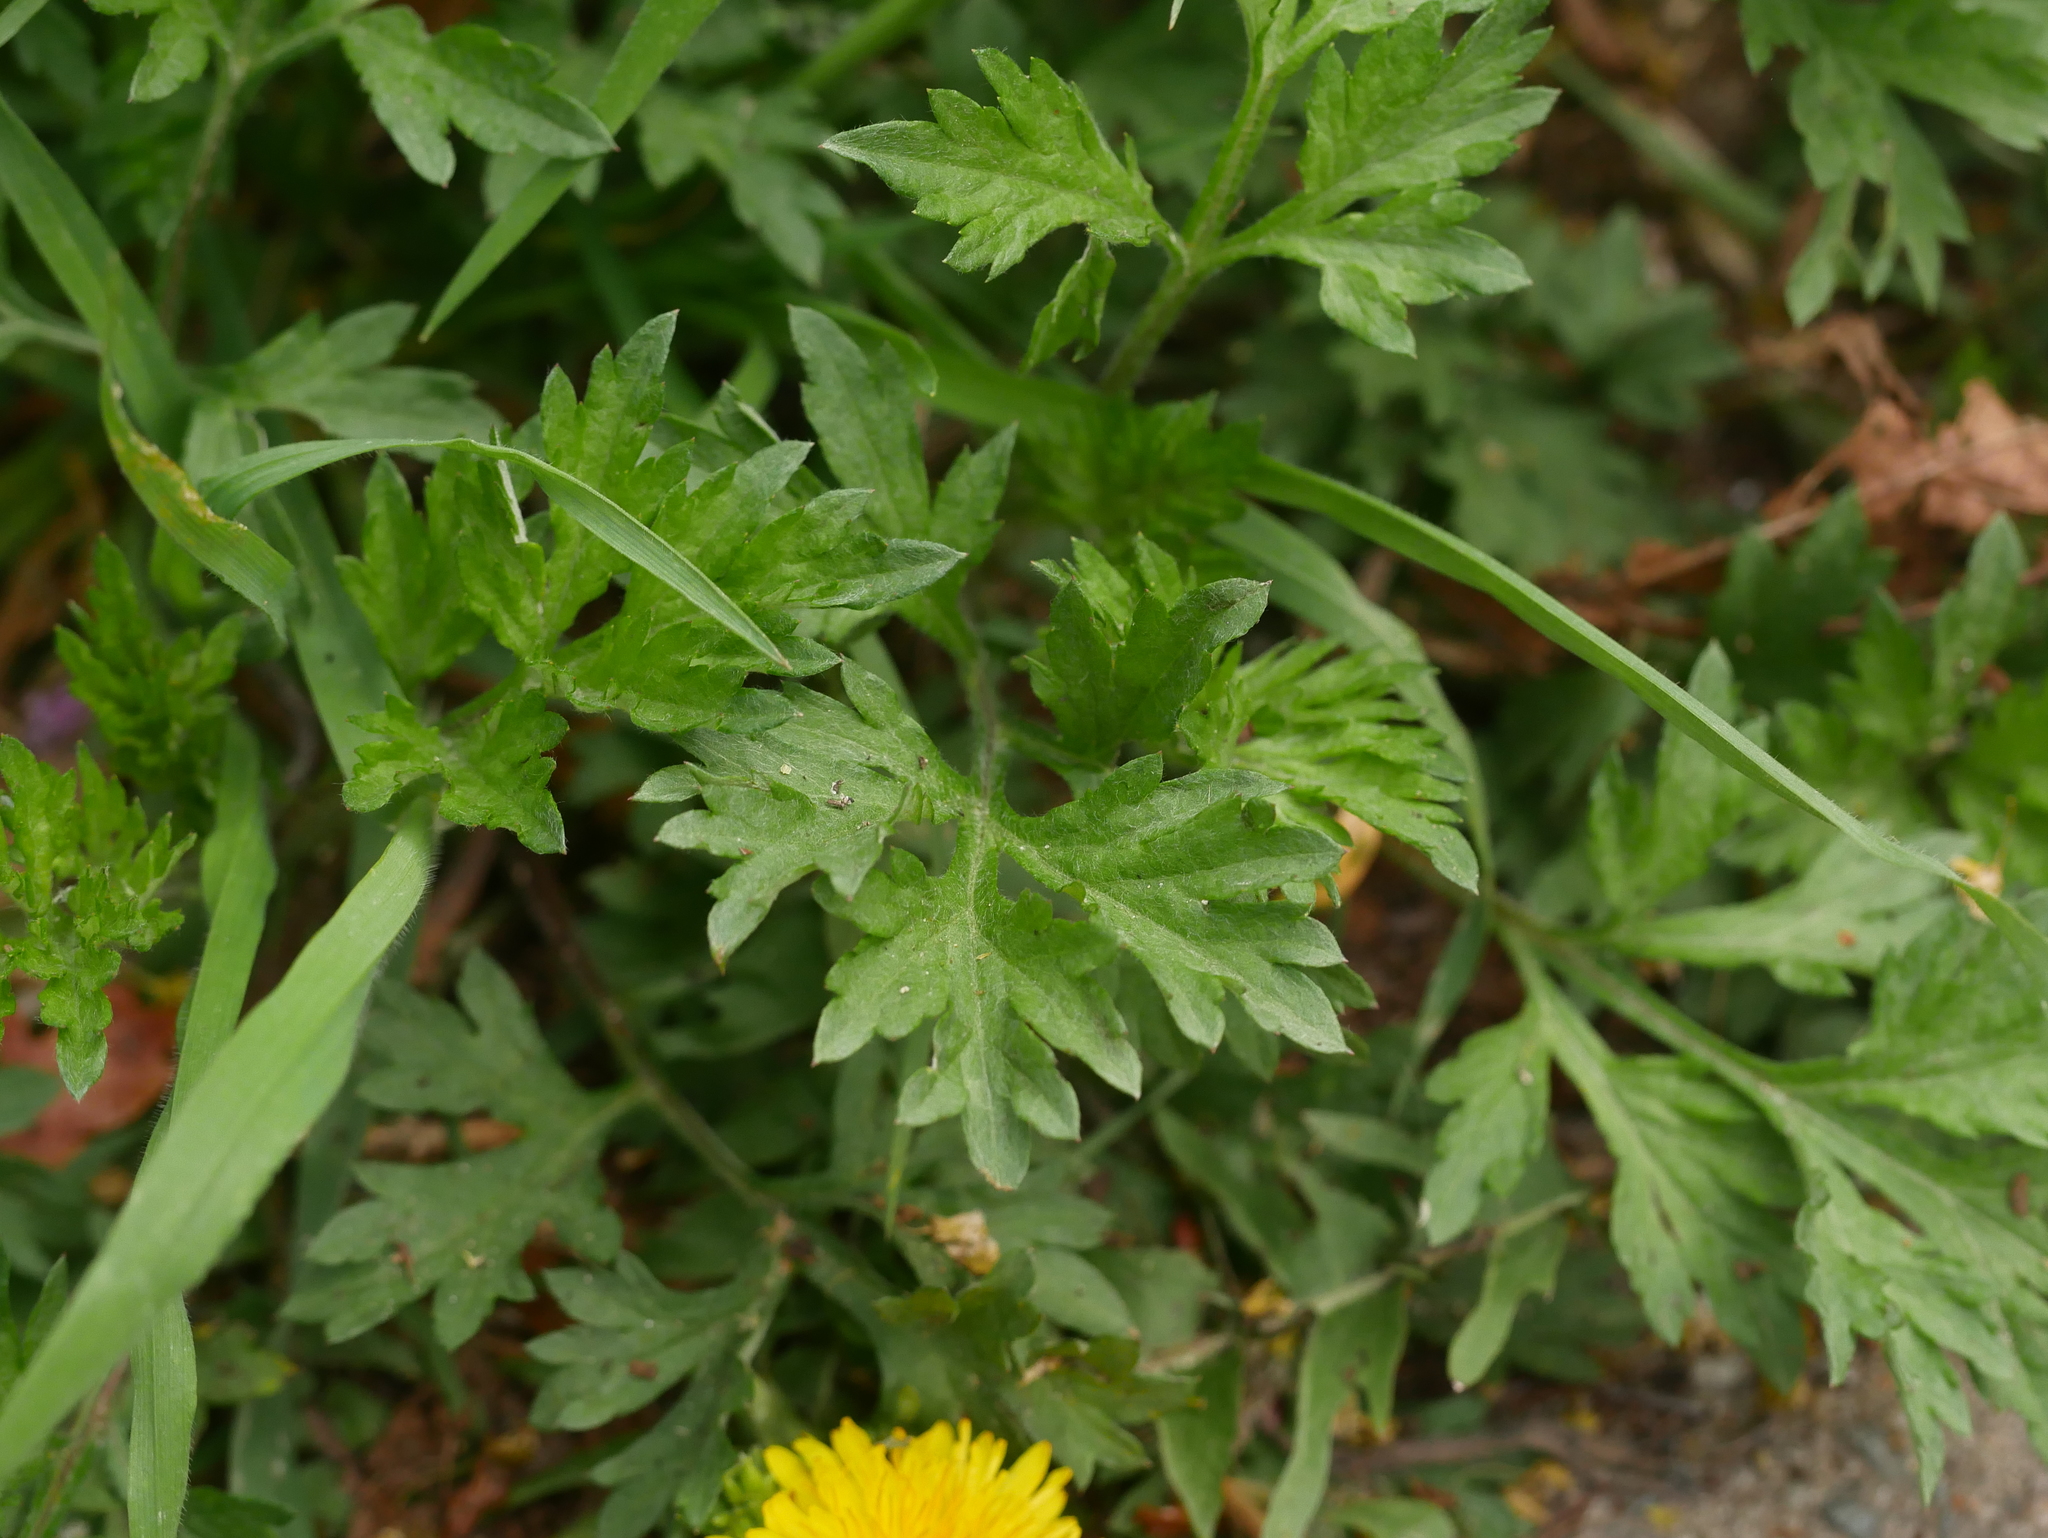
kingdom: Plantae
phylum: Tracheophyta
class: Magnoliopsida
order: Asterales
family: Asteraceae
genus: Artemisia
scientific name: Artemisia vulgaris
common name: Mugwort
